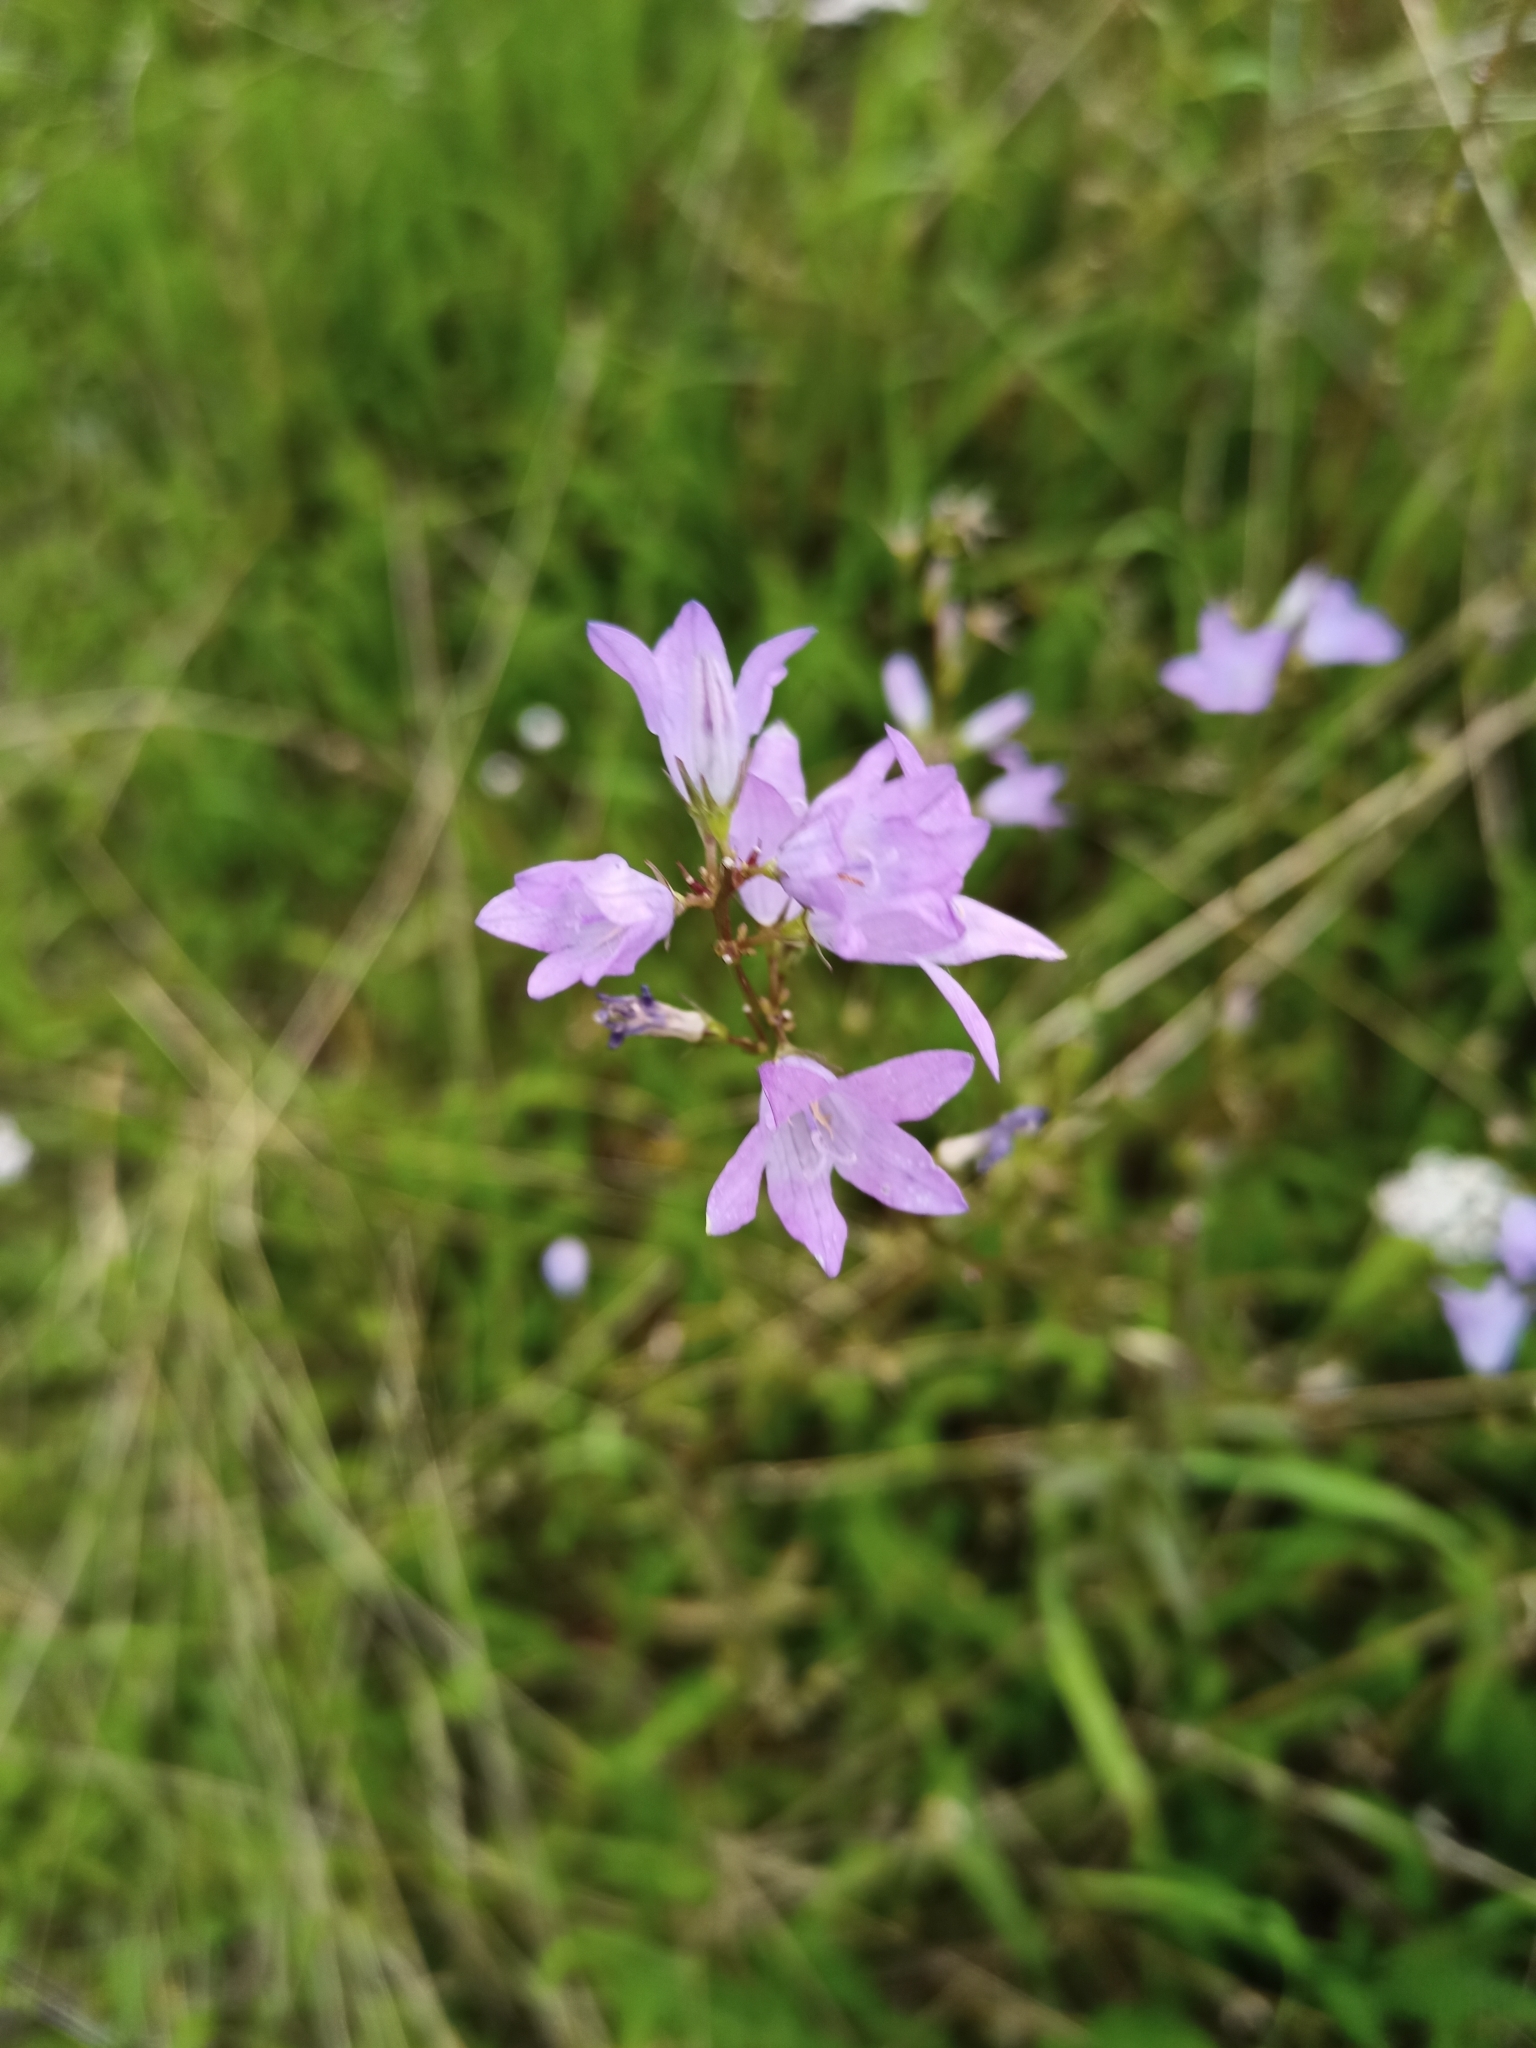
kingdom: Plantae
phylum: Tracheophyta
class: Magnoliopsida
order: Asterales
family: Campanulaceae
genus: Campanula
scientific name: Campanula rapunculus
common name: Rampion bellflower
